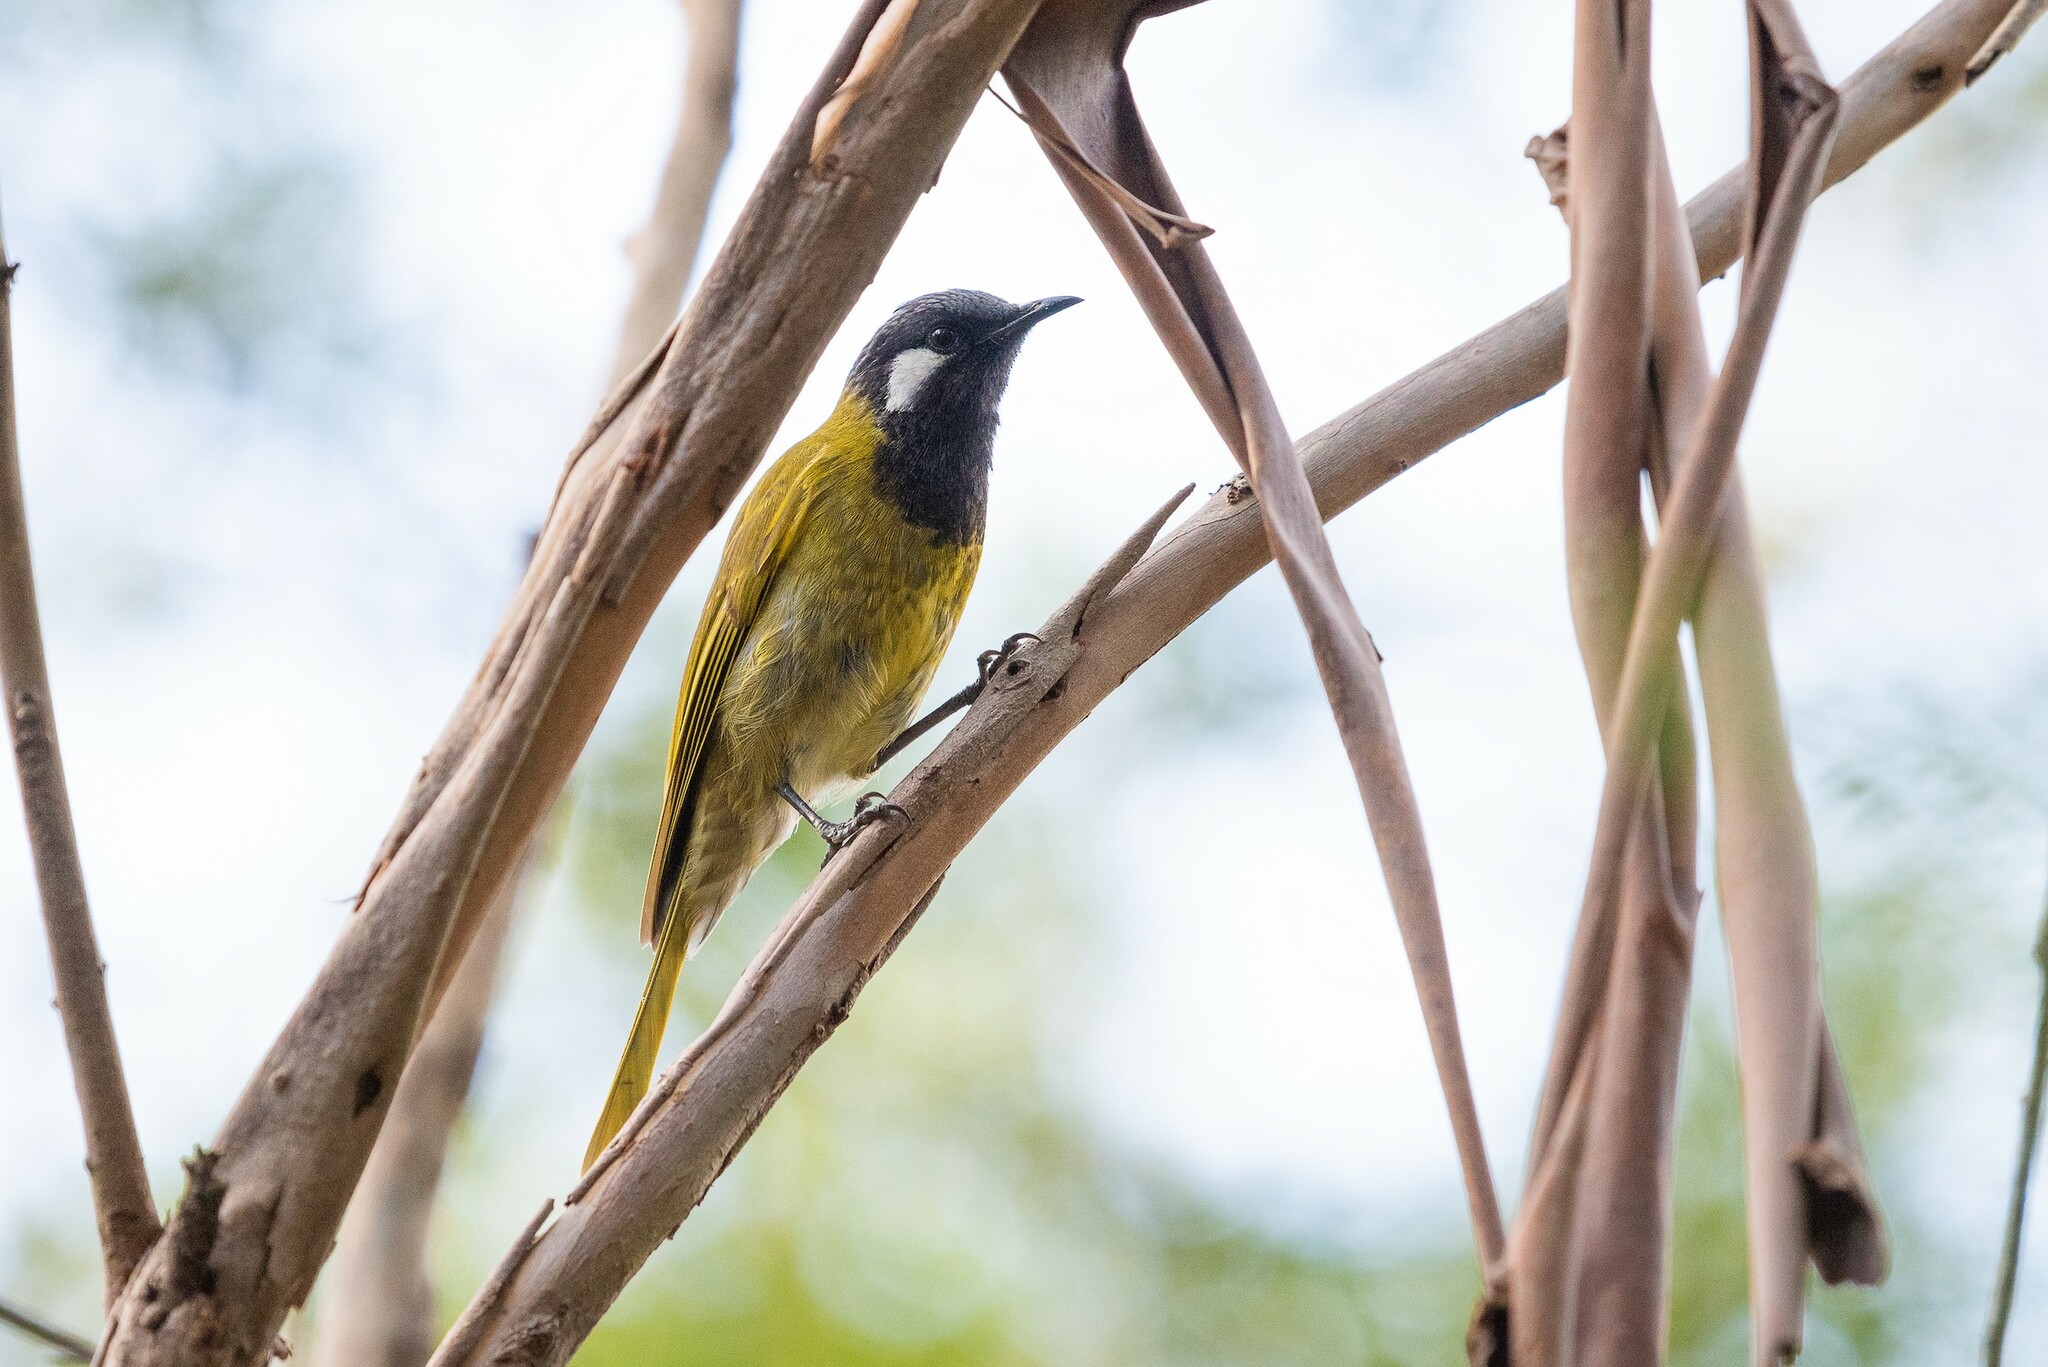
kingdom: Animalia
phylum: Chordata
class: Aves
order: Passeriformes
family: Meliphagidae
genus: Nesoptilotis
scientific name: Nesoptilotis leucotis
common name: White-eared honeyeater
